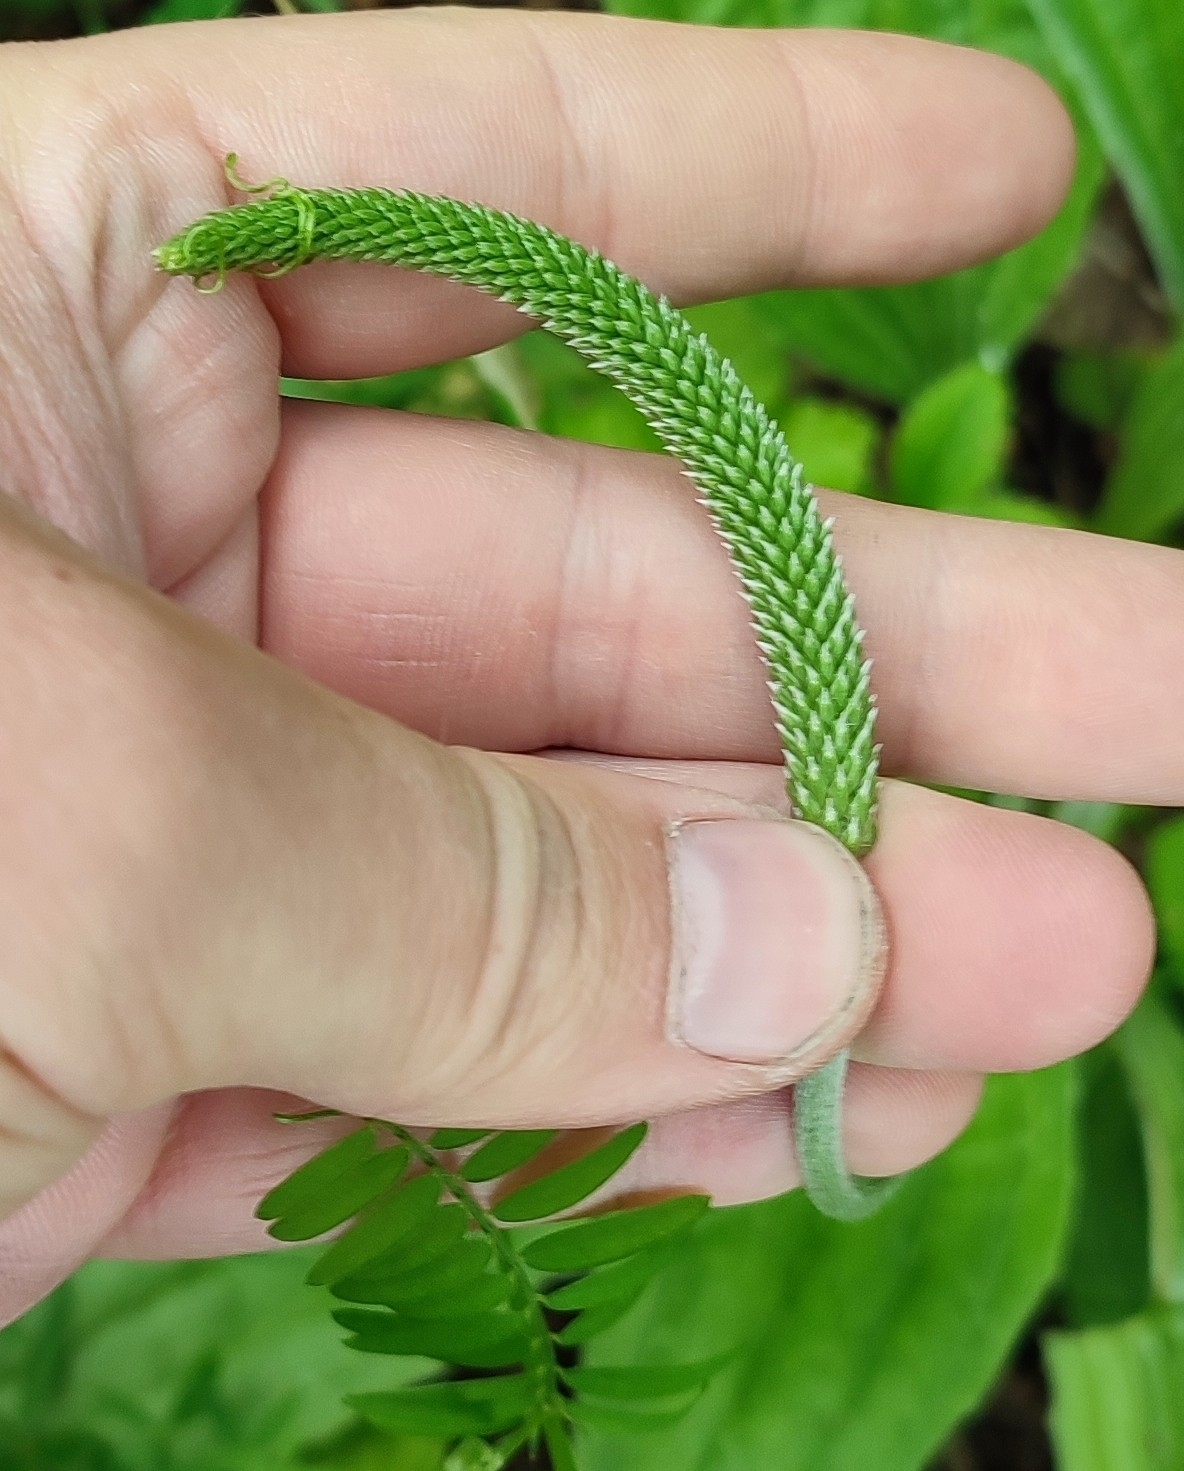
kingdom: Plantae
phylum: Tracheophyta
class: Magnoliopsida
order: Lamiales
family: Plantaginaceae
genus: Plantago
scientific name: Plantago urvillei
